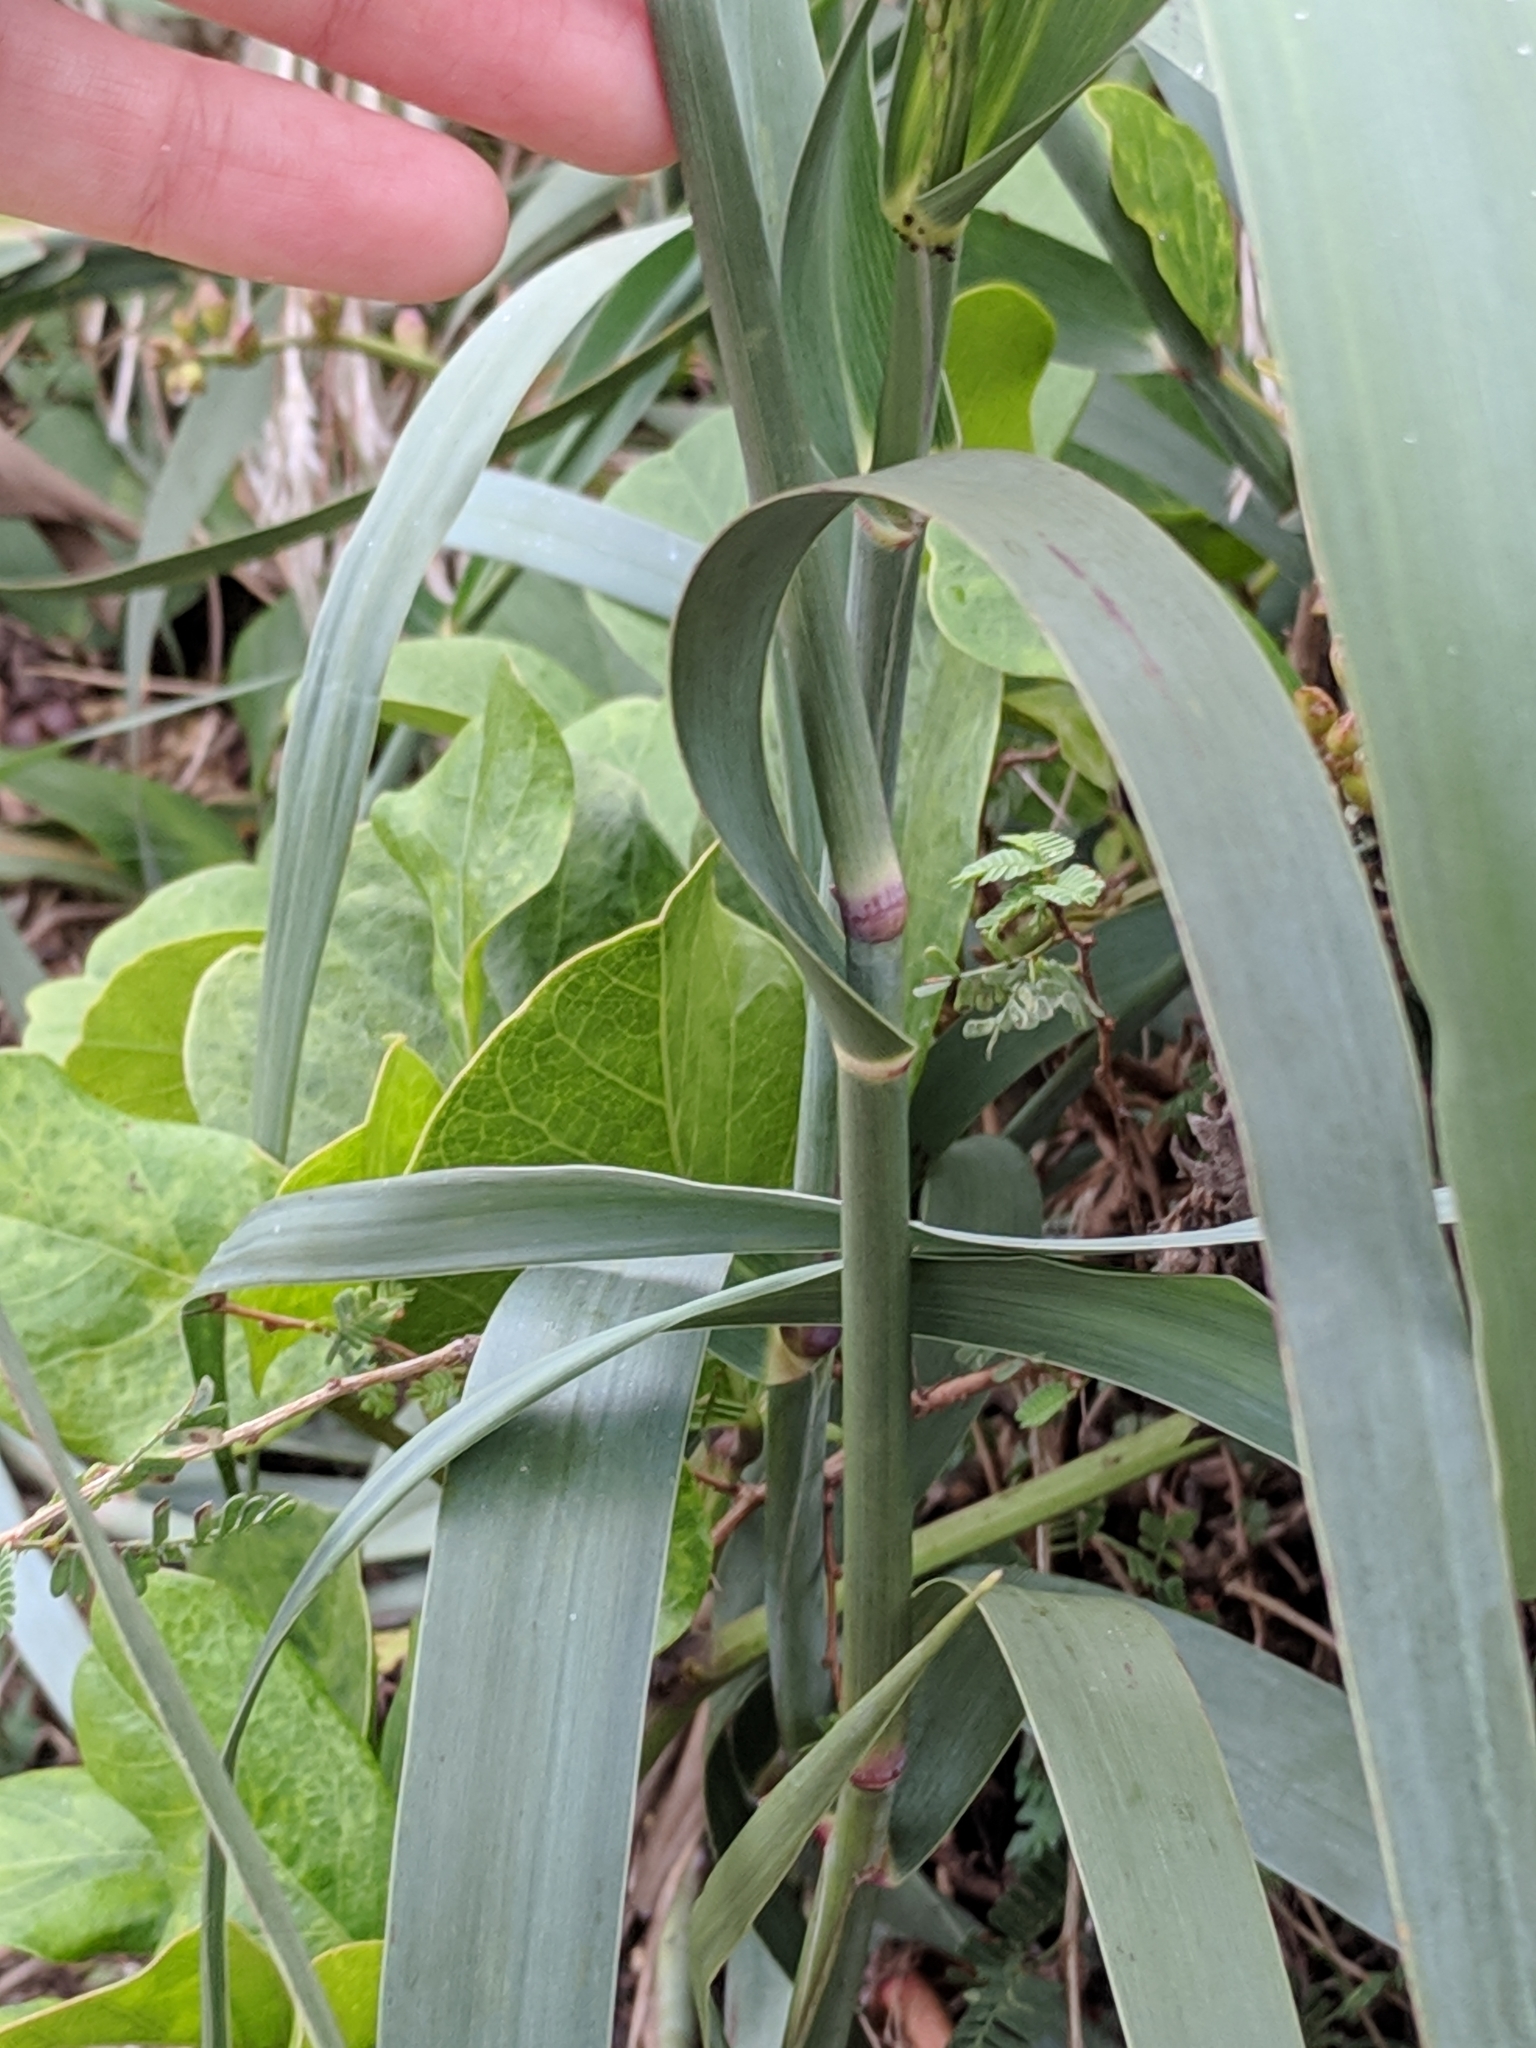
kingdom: Plantae
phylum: Tracheophyta
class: Liliopsida
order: Poales
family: Poaceae
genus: Panicum
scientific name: Panicum amarum
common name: Bitter panicum
